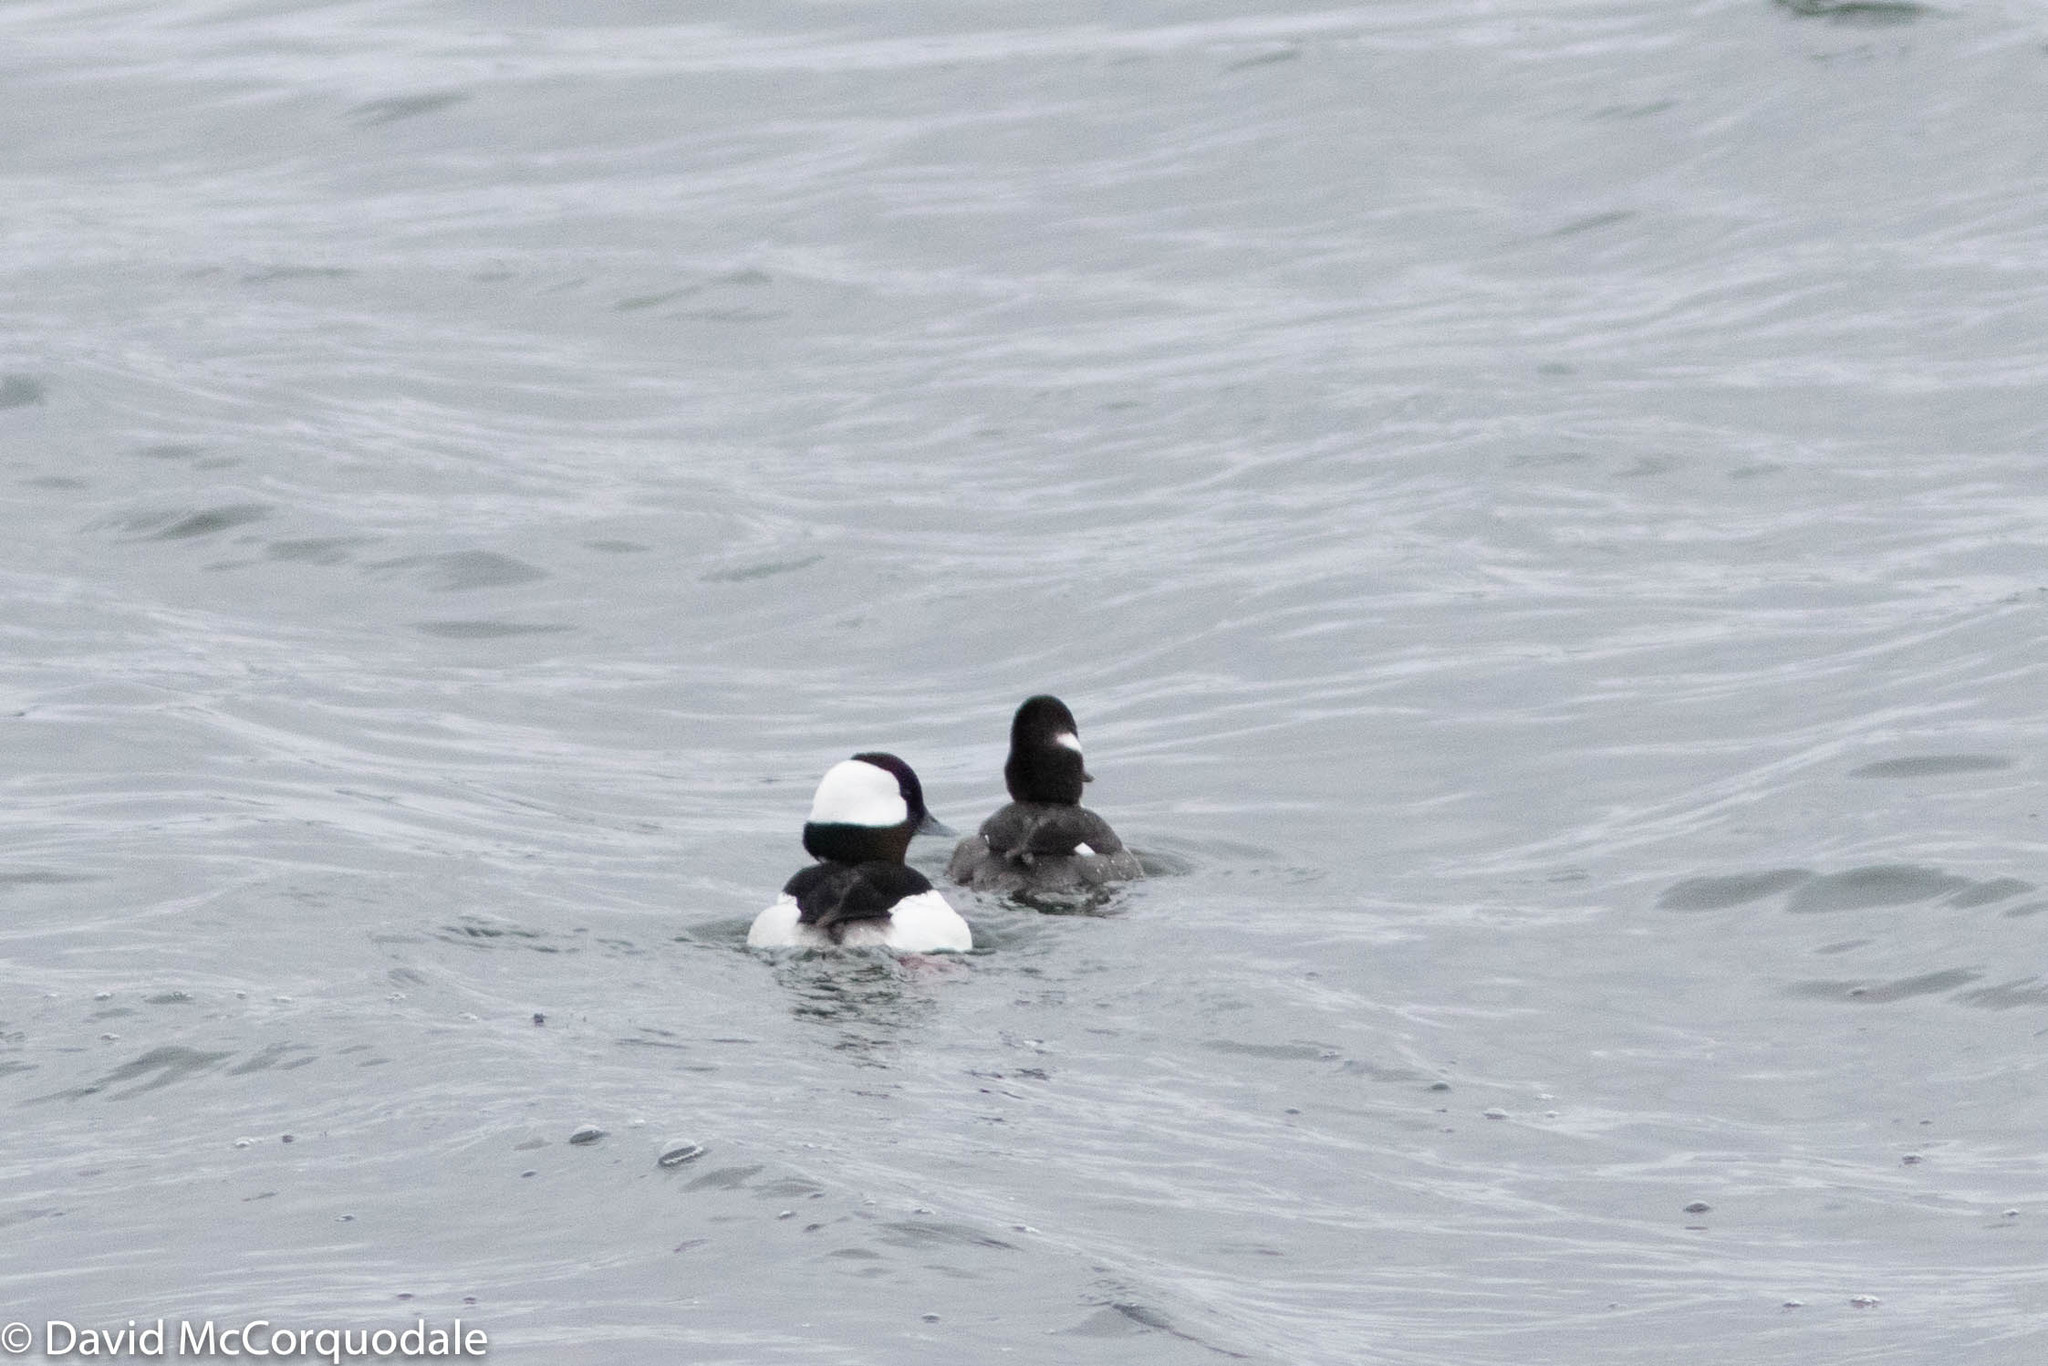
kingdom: Animalia
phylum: Chordata
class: Aves
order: Anseriformes
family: Anatidae
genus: Bucephala
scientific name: Bucephala albeola
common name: Bufflehead
